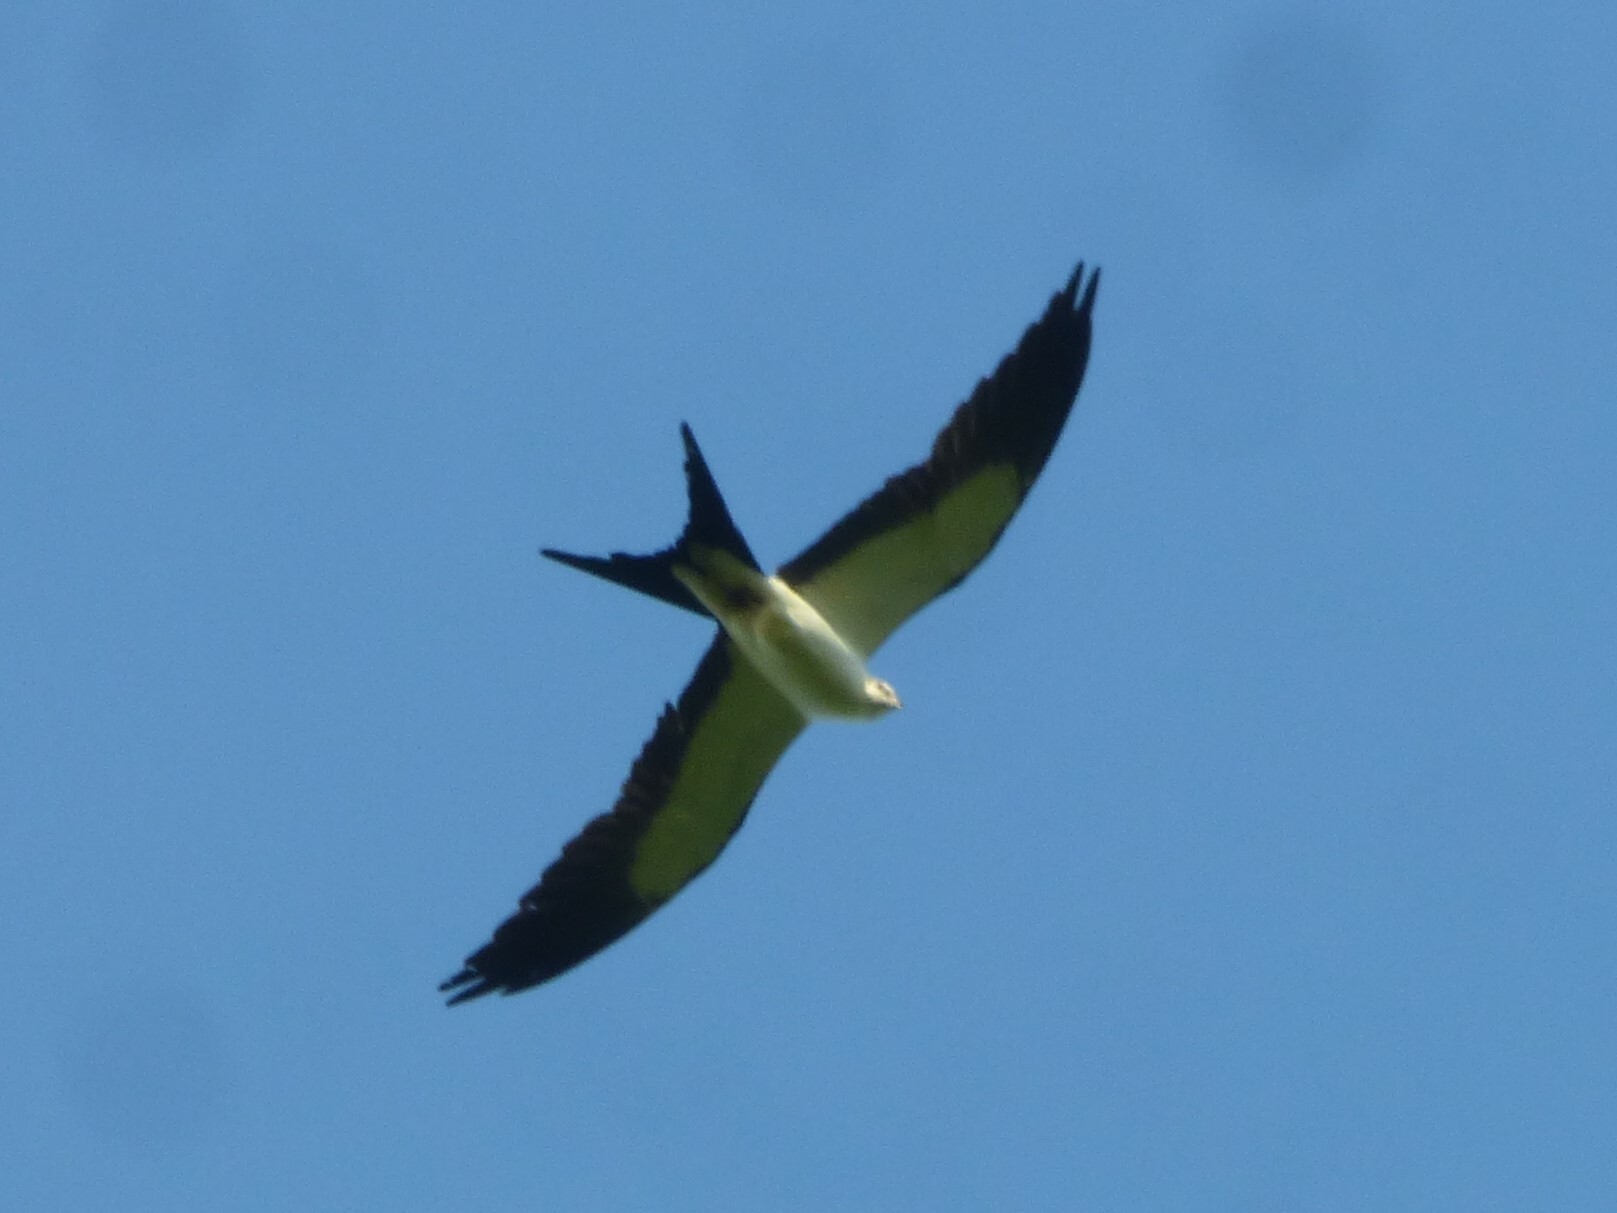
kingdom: Animalia
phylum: Chordata
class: Aves
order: Accipitriformes
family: Accipitridae
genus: Elanoides
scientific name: Elanoides forficatus
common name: Swallow-tailed kite
